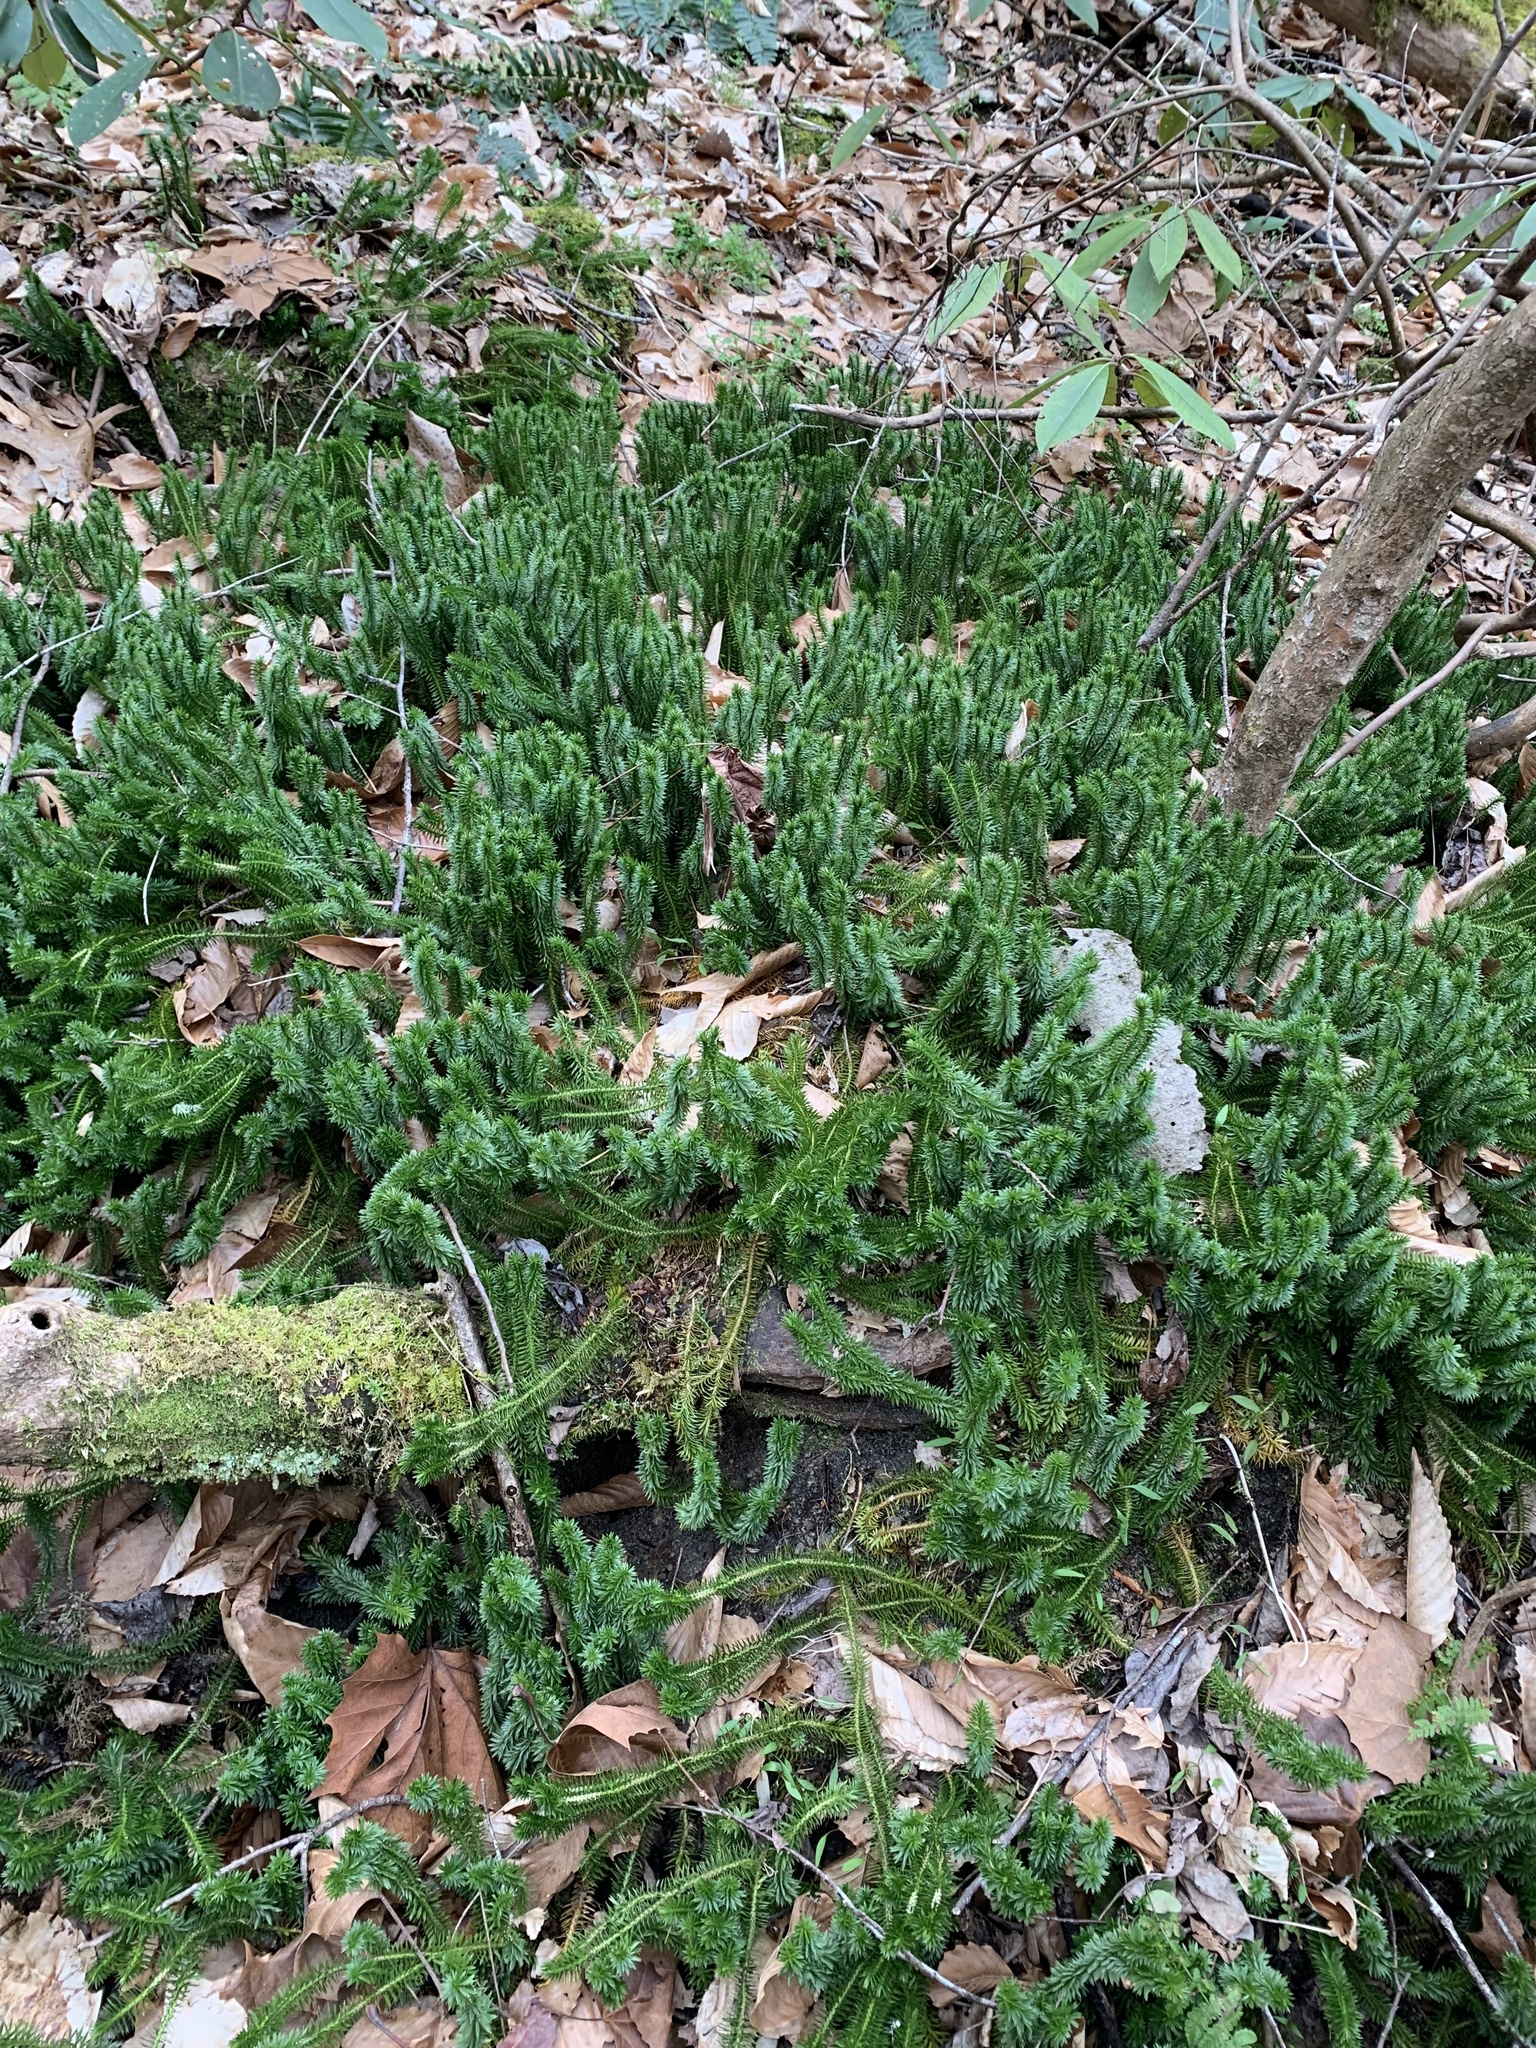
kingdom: Plantae
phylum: Tracheophyta
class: Lycopodiopsida
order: Lycopodiales
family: Lycopodiaceae
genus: Huperzia
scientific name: Huperzia lucidula
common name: Shining clubmoss
